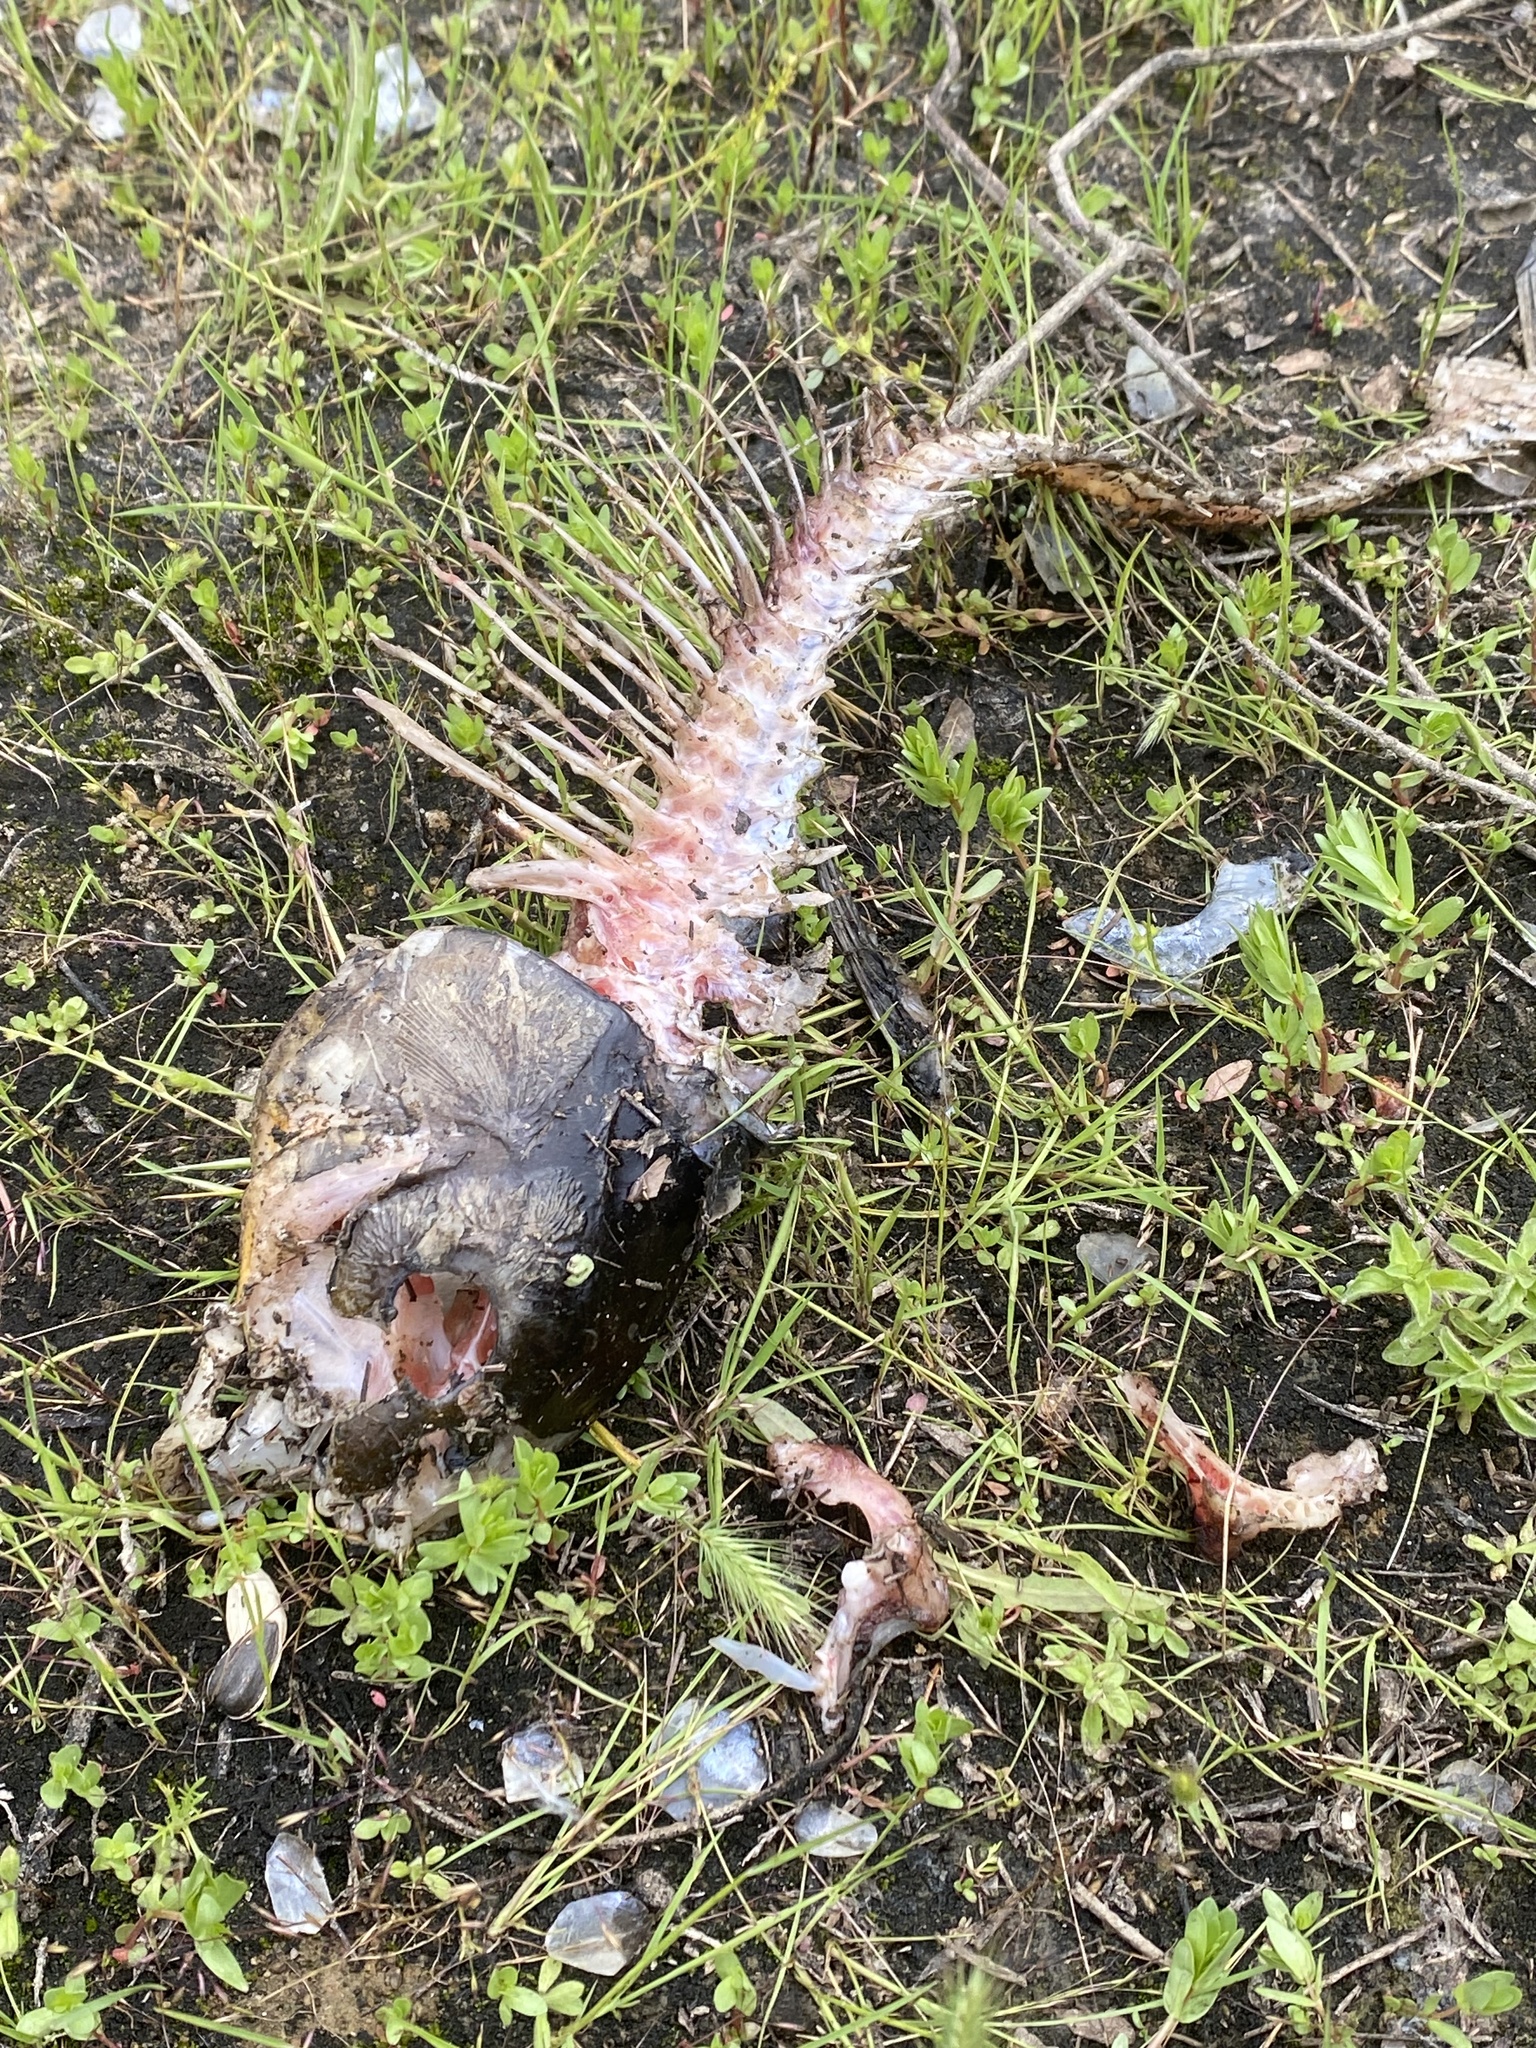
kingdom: Animalia
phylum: Chordata
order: Cypriniformes
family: Cyprinidae
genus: Cyprinus
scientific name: Cyprinus carpio
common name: Common carp
